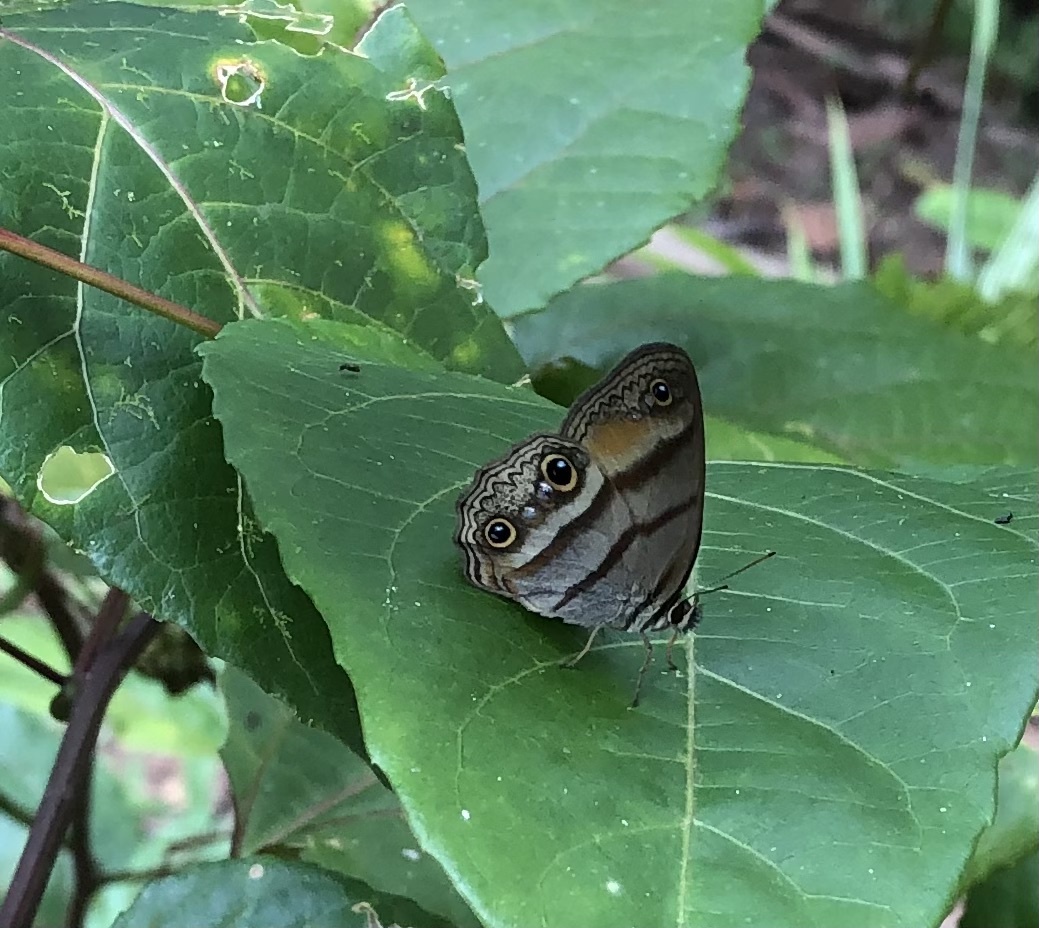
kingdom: Animalia
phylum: Arthropoda
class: Insecta
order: Lepidoptera
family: Nymphalidae
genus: Argyreuptychia
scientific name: Argyreuptychia penelope
